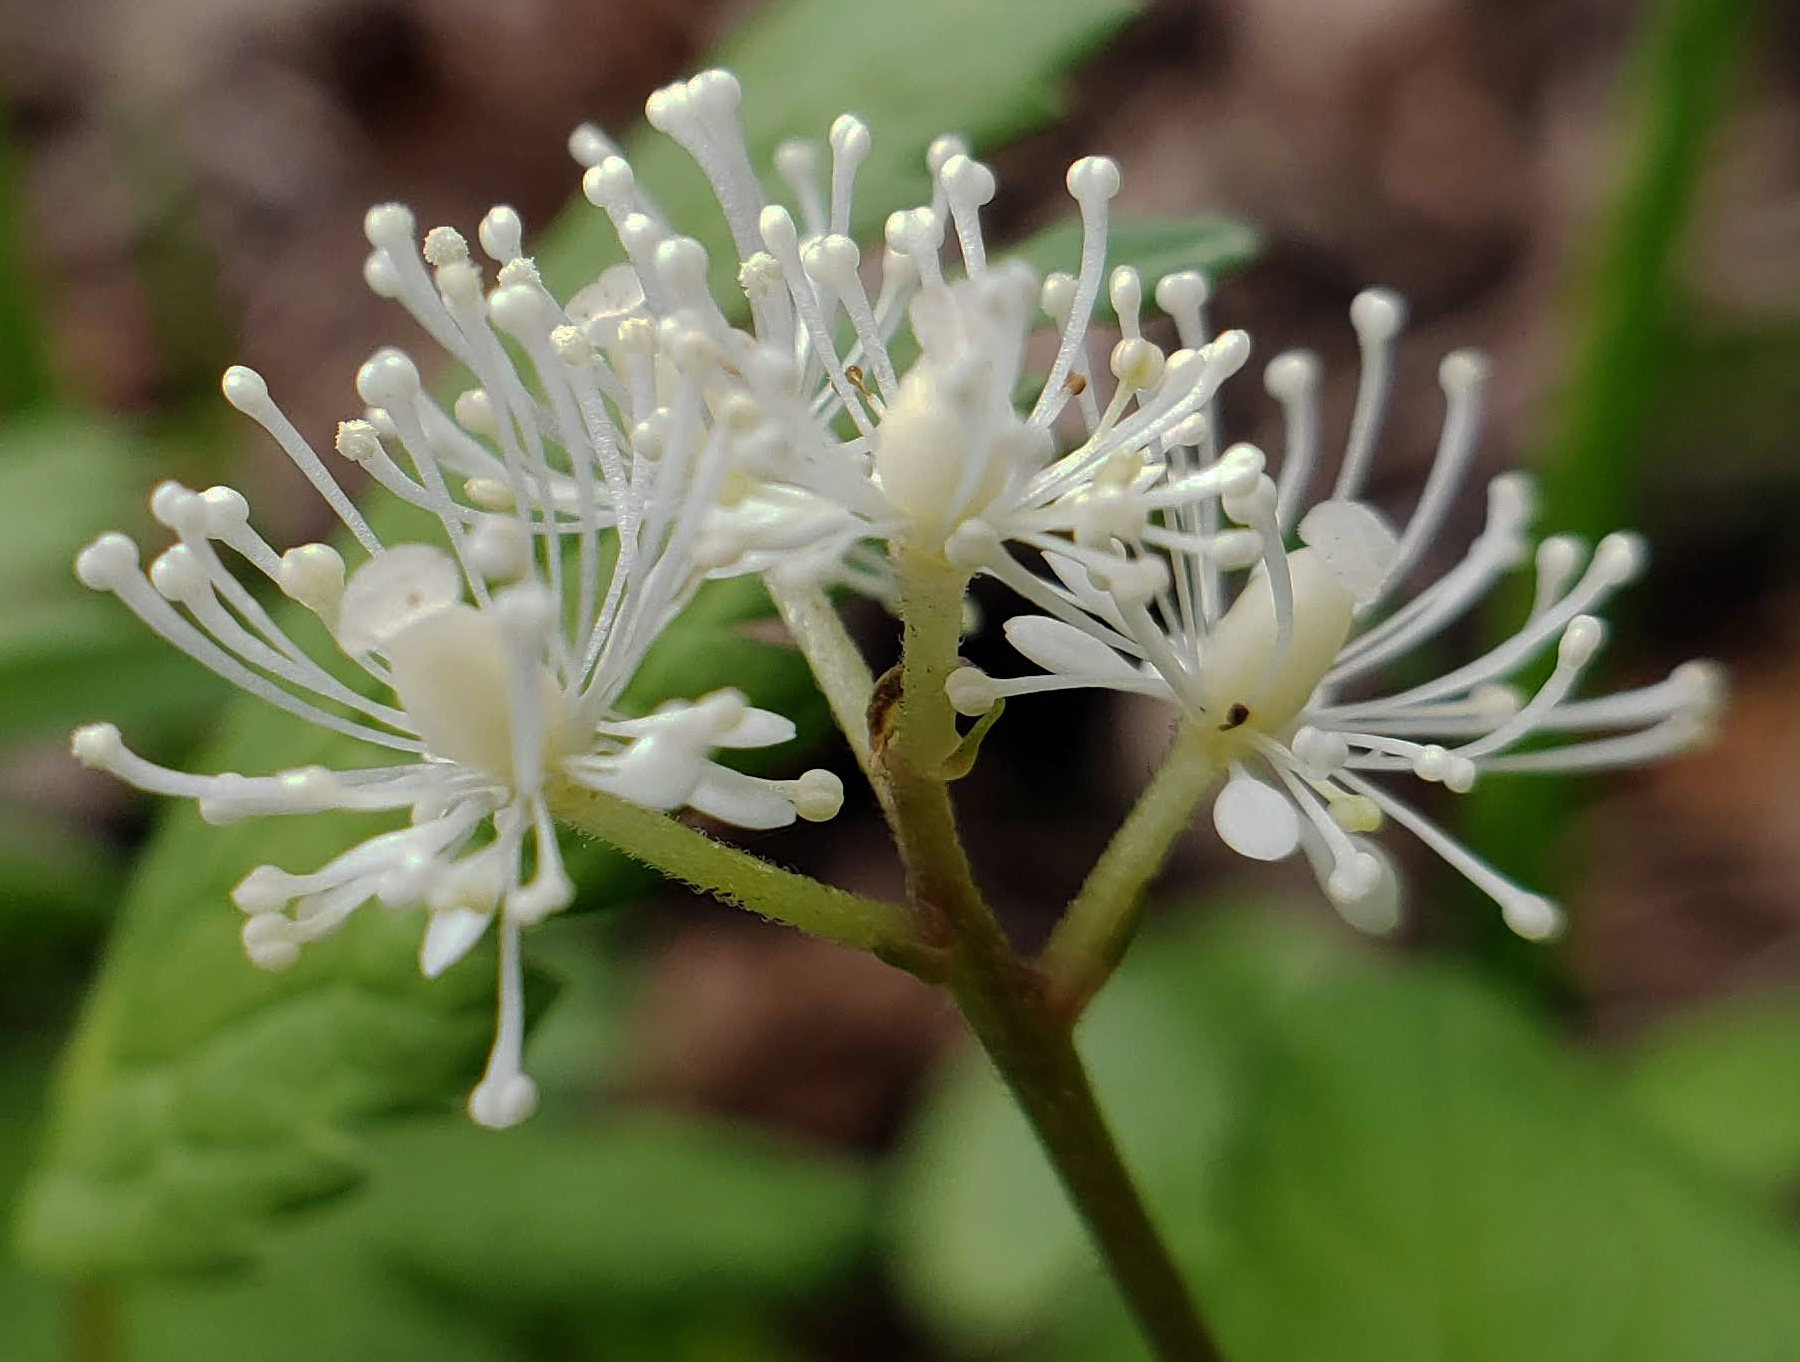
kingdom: Plantae
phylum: Tracheophyta
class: Magnoliopsida
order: Ranunculales
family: Ranunculaceae
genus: Actaea
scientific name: Actaea rubra
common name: Red baneberry
